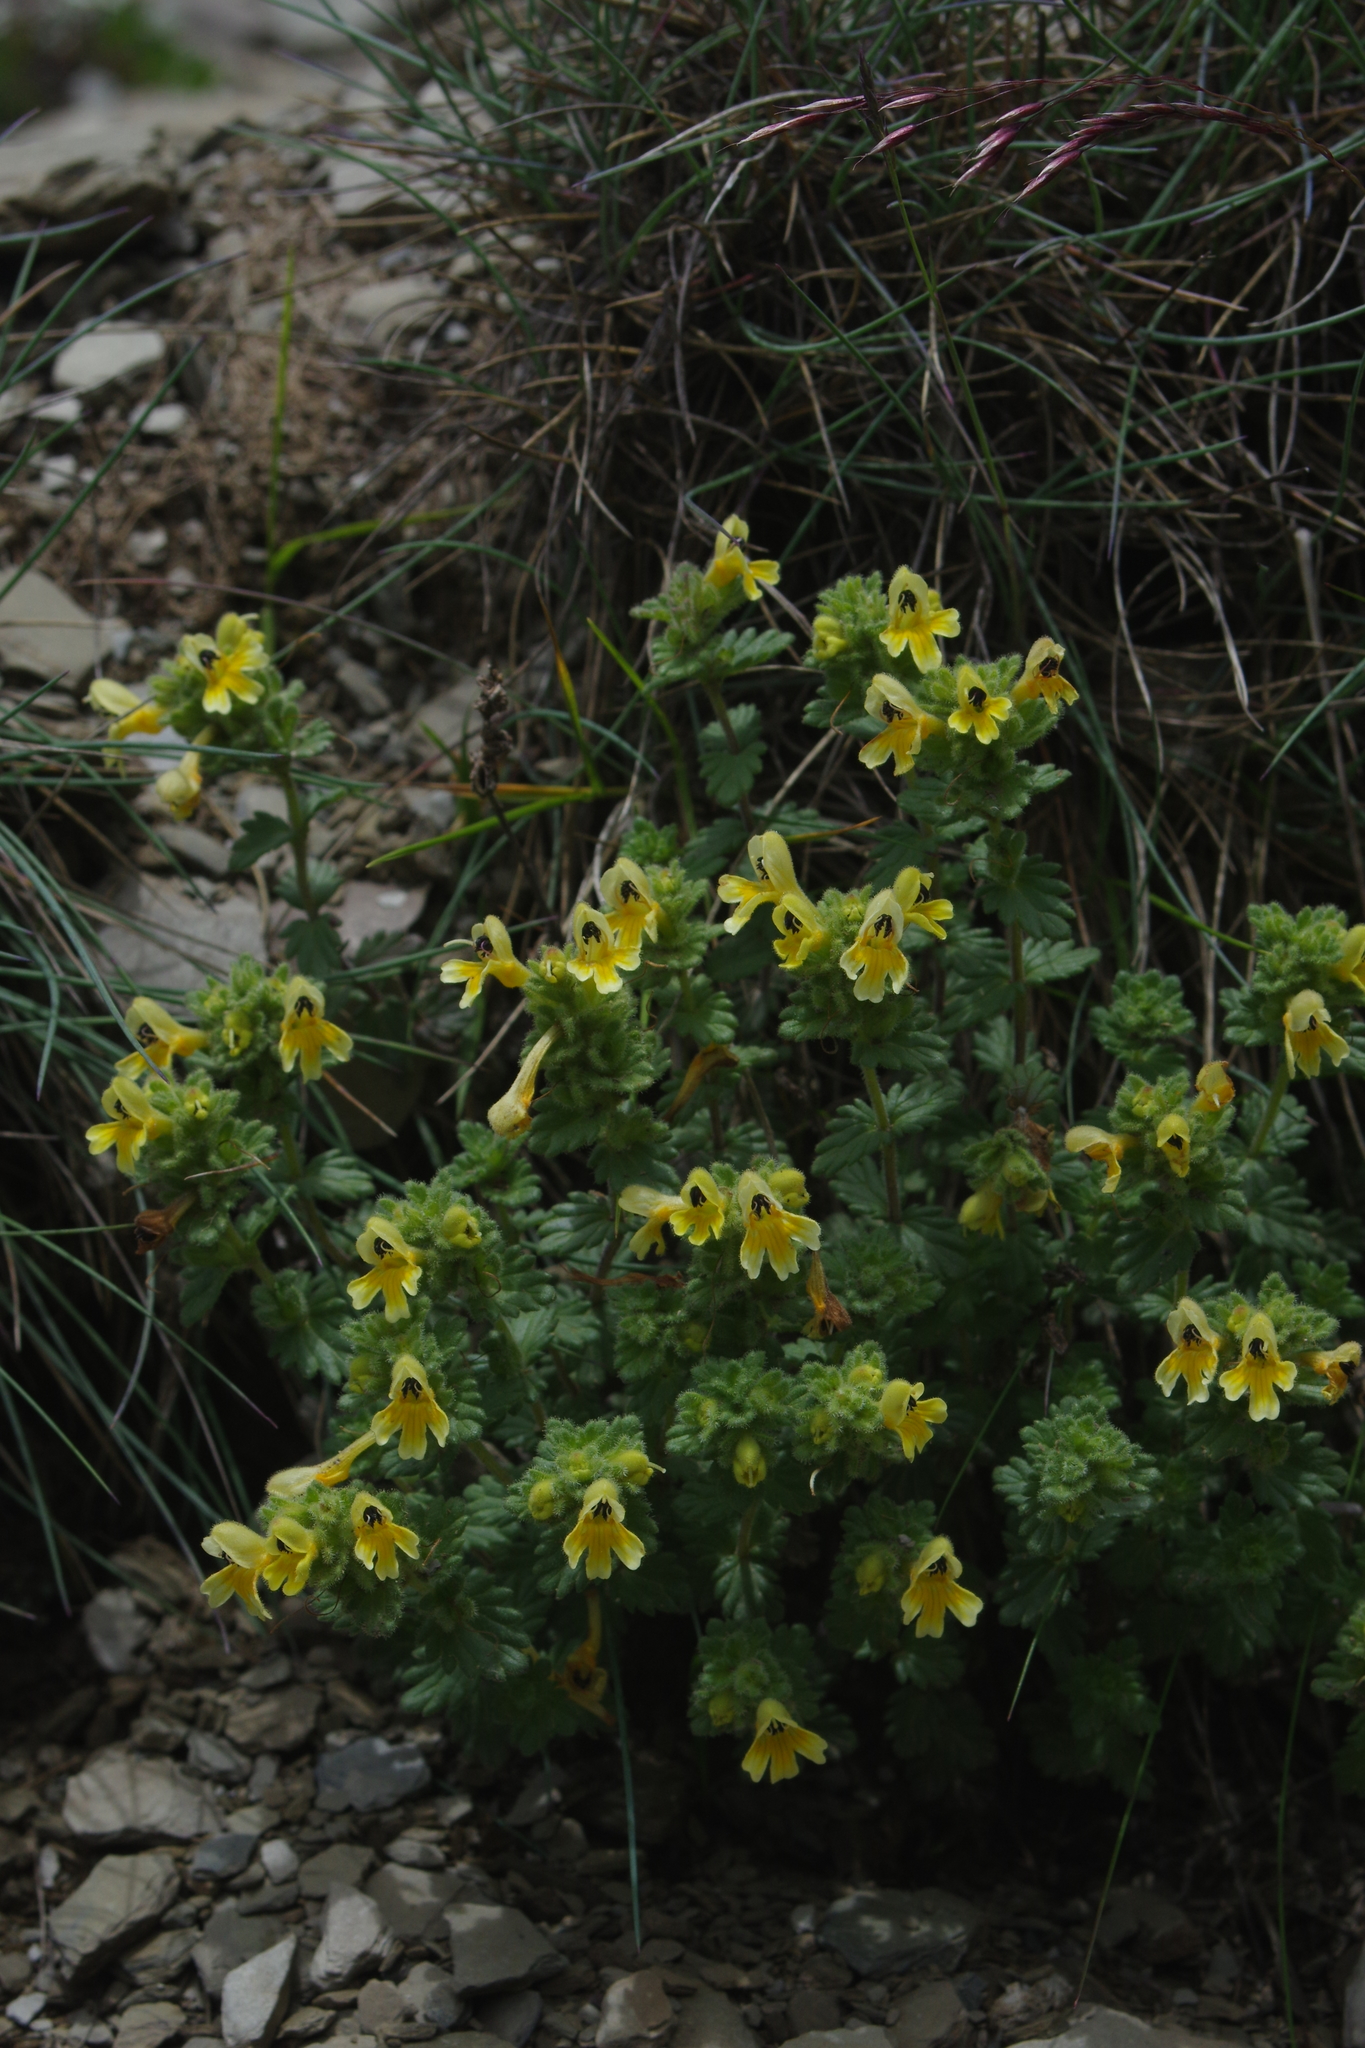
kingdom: Plantae
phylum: Tracheophyta
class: Magnoliopsida
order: Lamiales
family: Orobanchaceae
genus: Euphrasia
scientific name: Euphrasia nankotaizanensis
